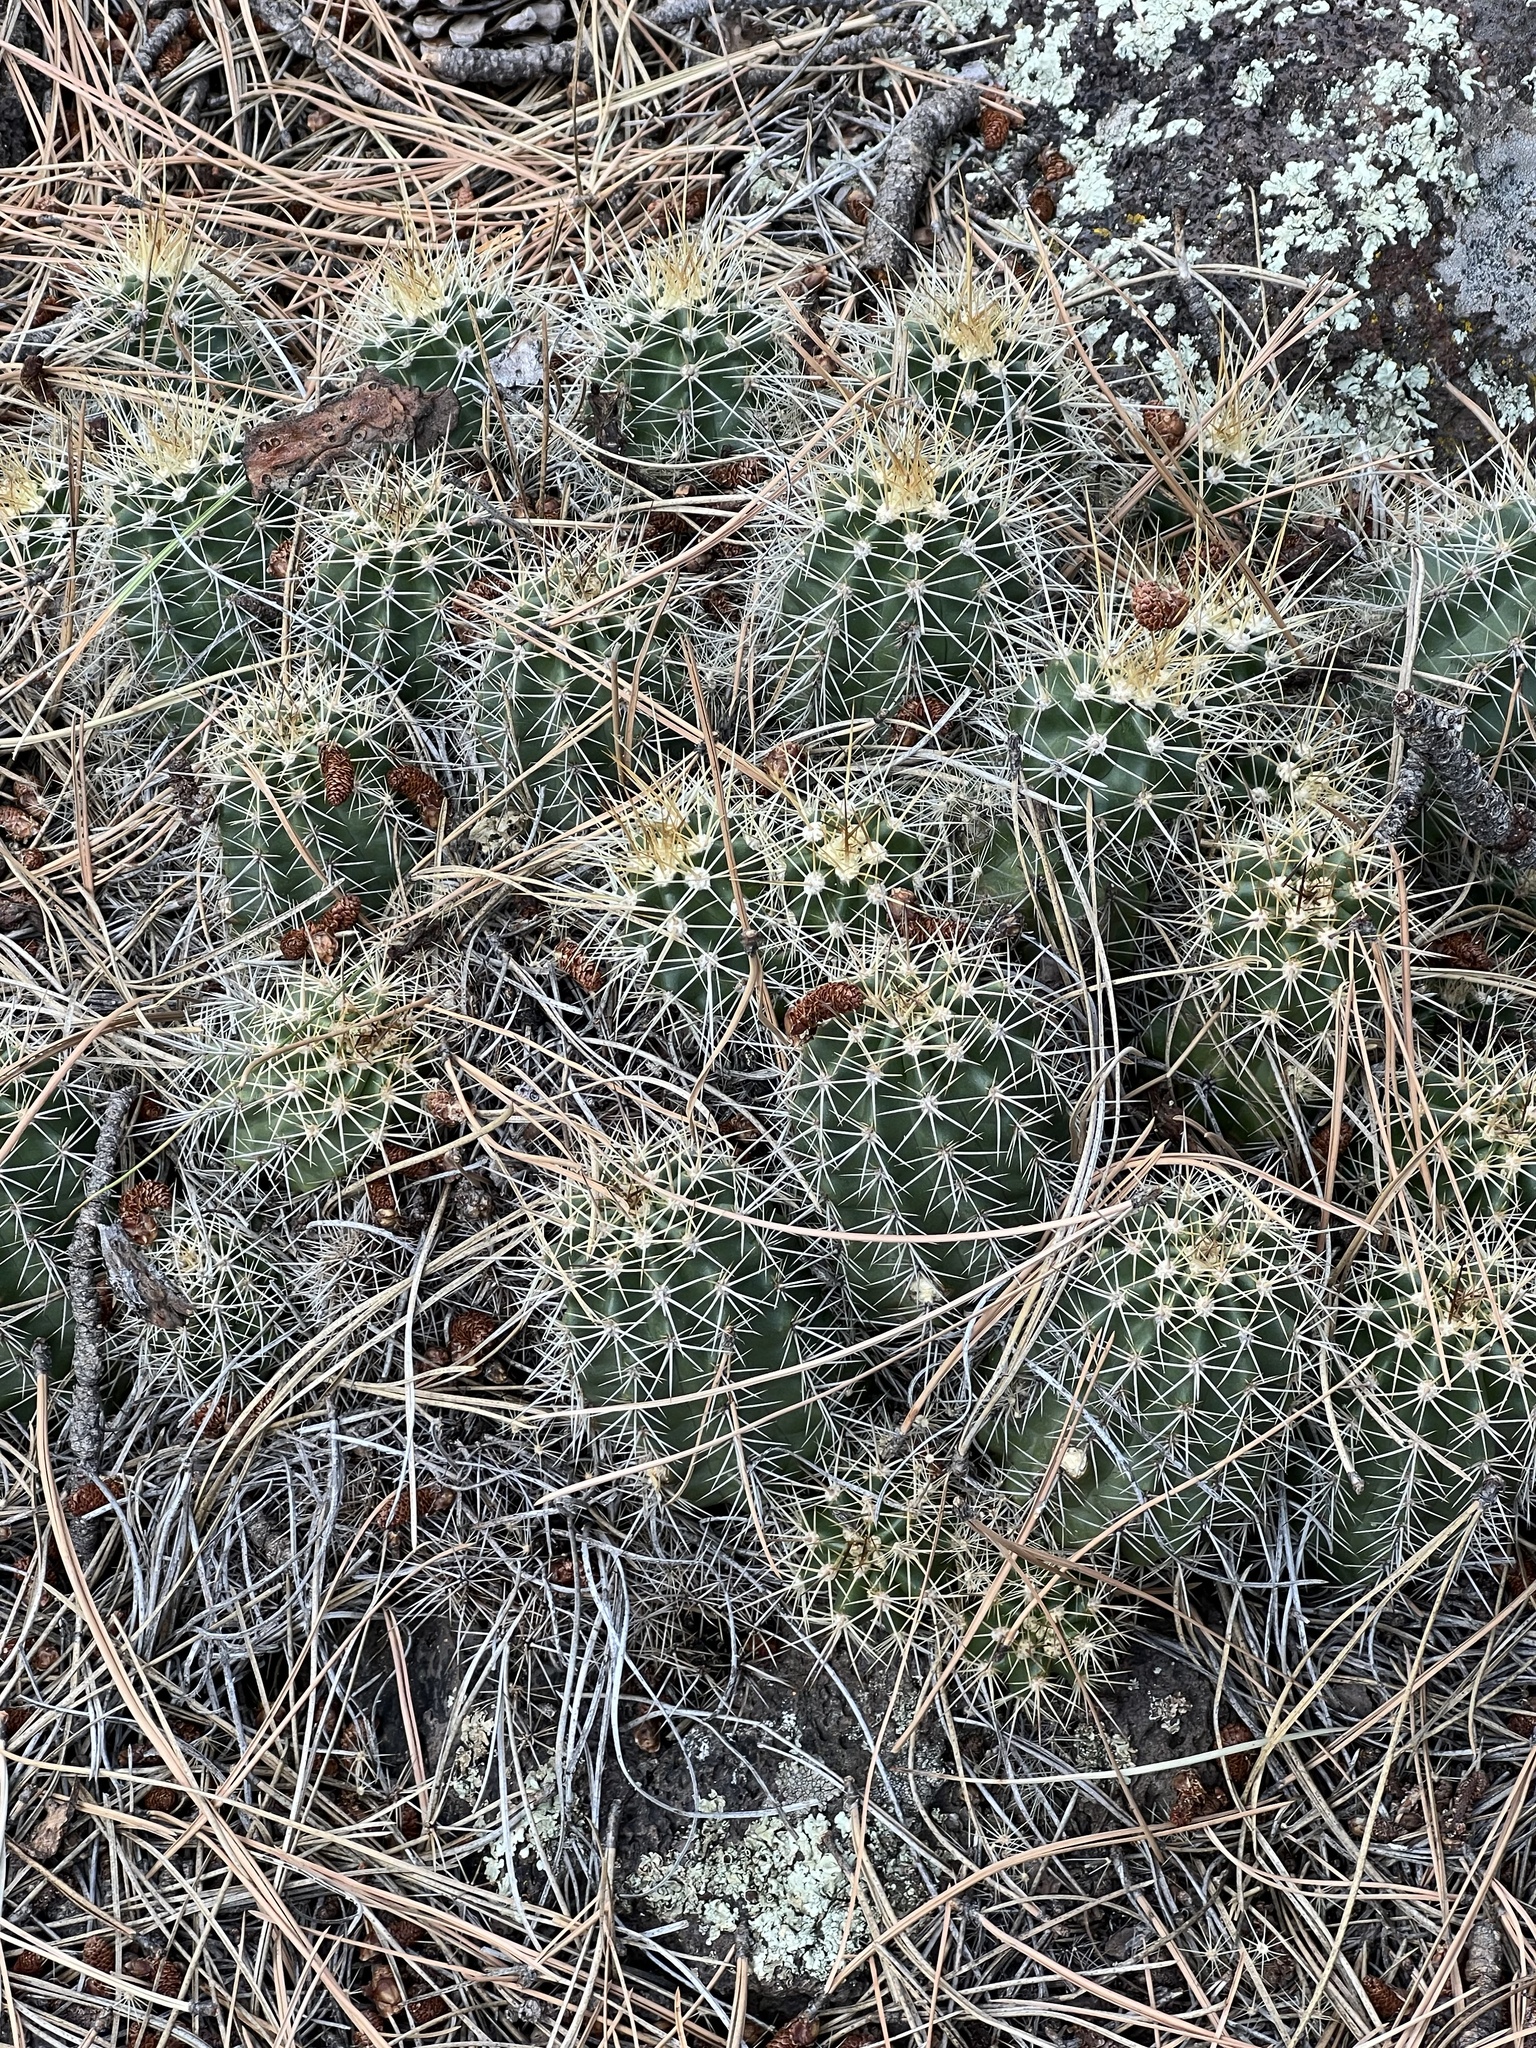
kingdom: Plantae
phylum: Tracheophyta
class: Magnoliopsida
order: Caryophyllales
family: Cactaceae
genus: Echinocereus
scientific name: Echinocereus bakeri
